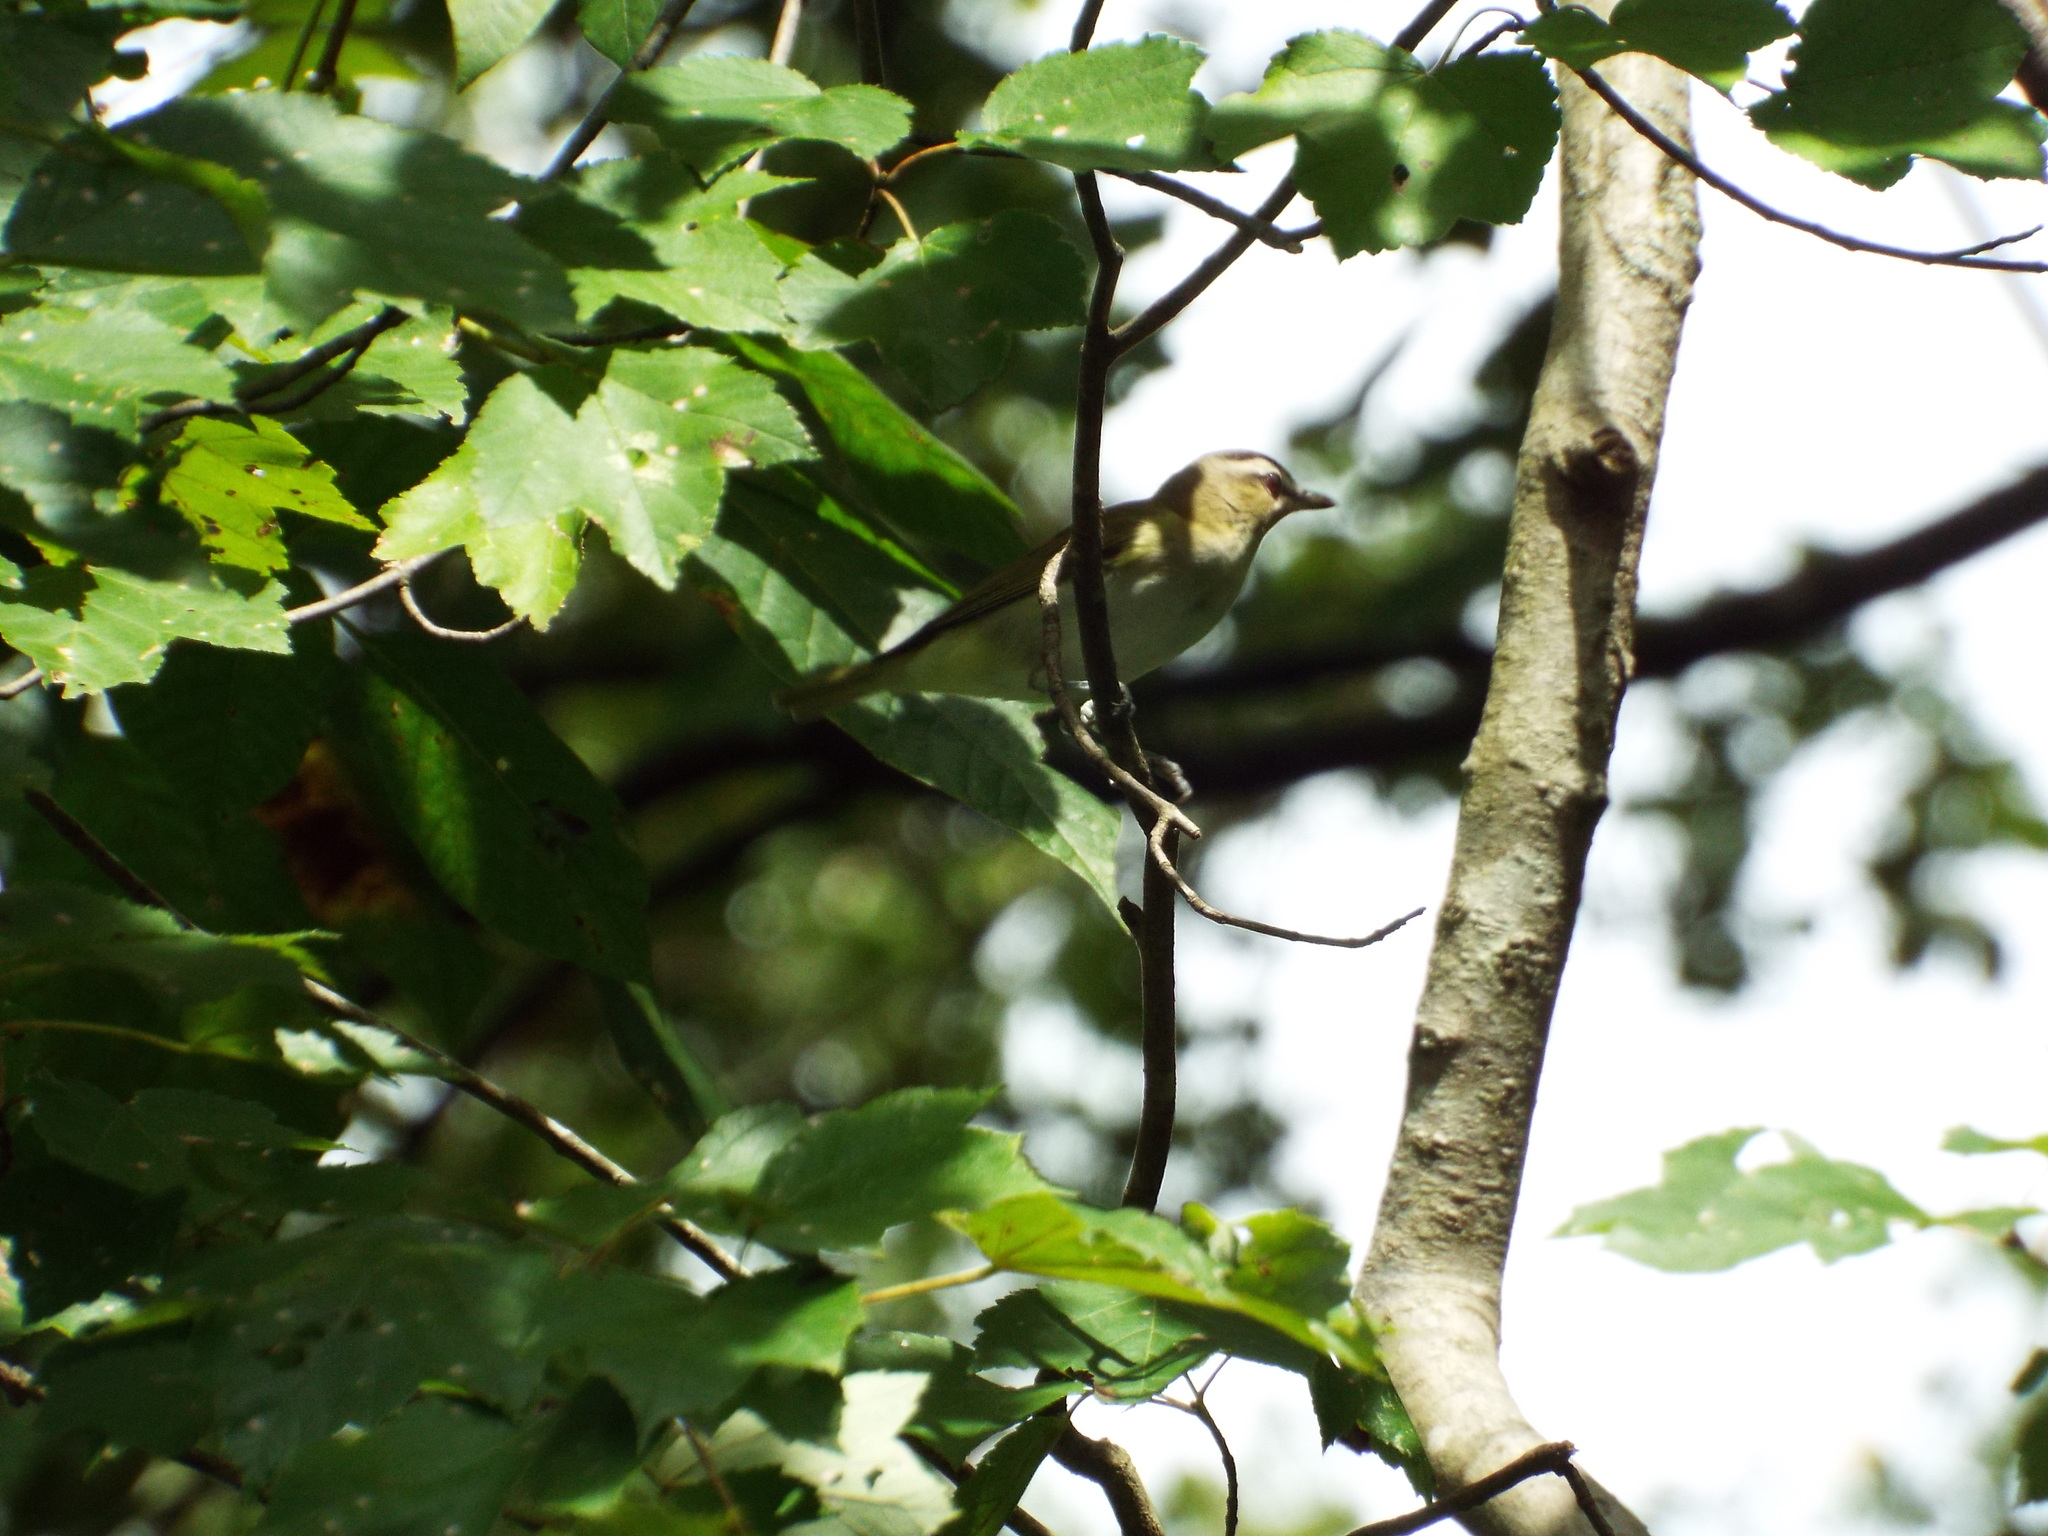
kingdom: Animalia
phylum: Chordata
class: Aves
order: Passeriformes
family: Vireonidae
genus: Vireo
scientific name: Vireo olivaceus
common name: Red-eyed vireo
